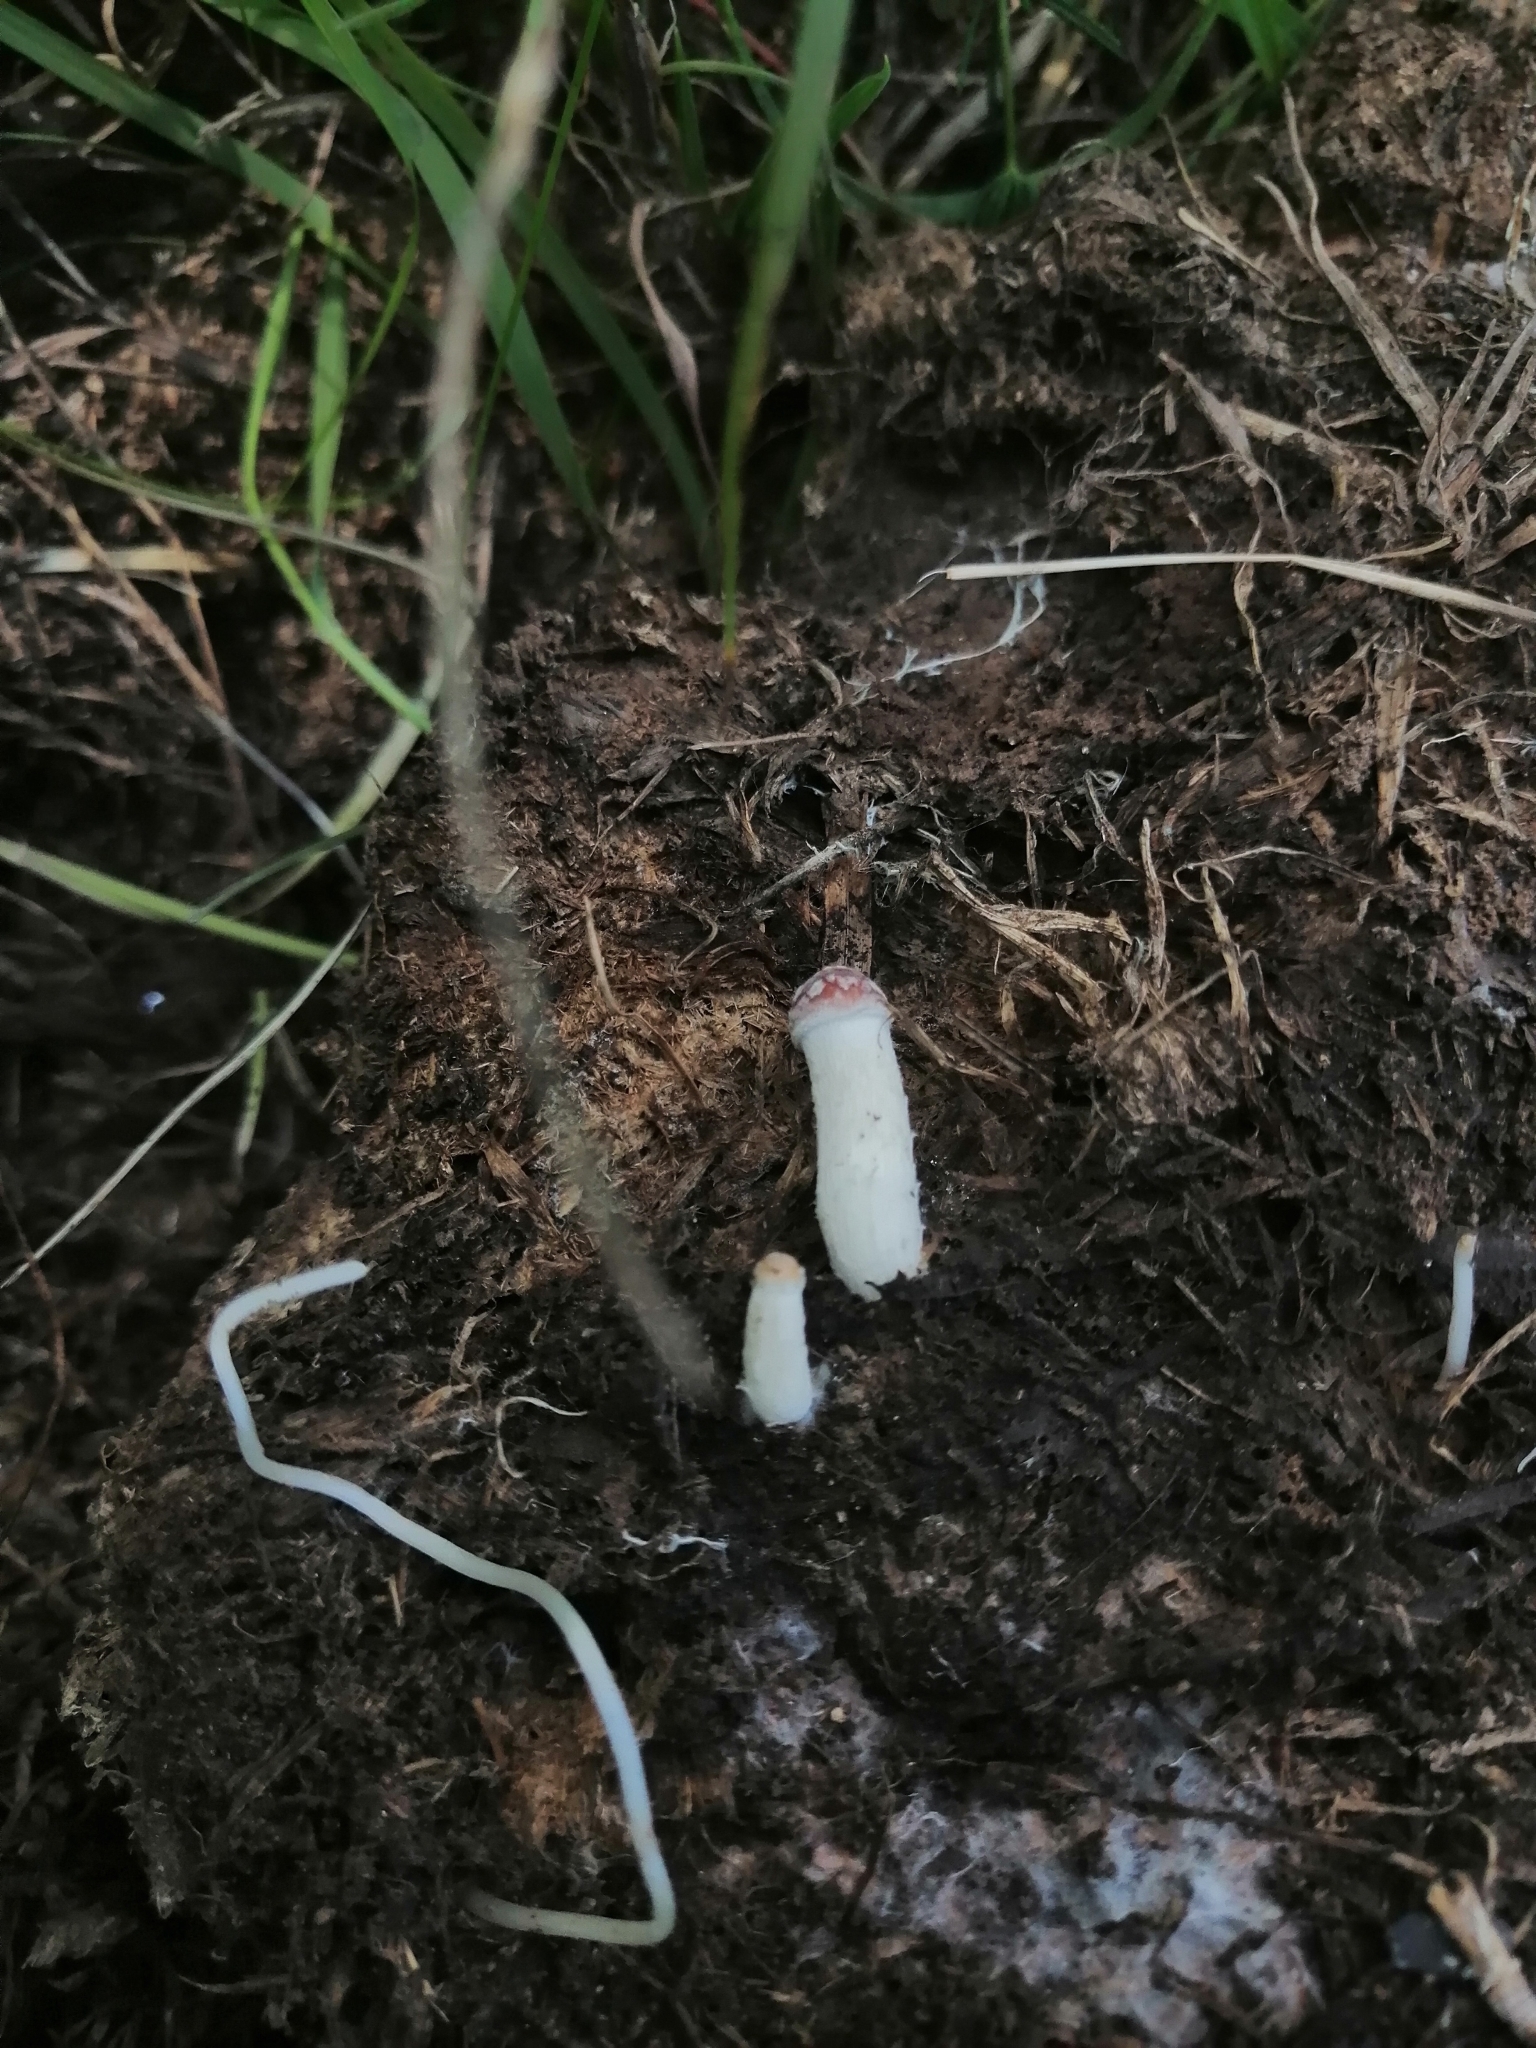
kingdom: Fungi
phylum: Basidiomycota
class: Agaricomycetes
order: Agaricales
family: Hymenogastraceae
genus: Psilocybe
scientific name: Psilocybe cubensis
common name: Golden brownie
